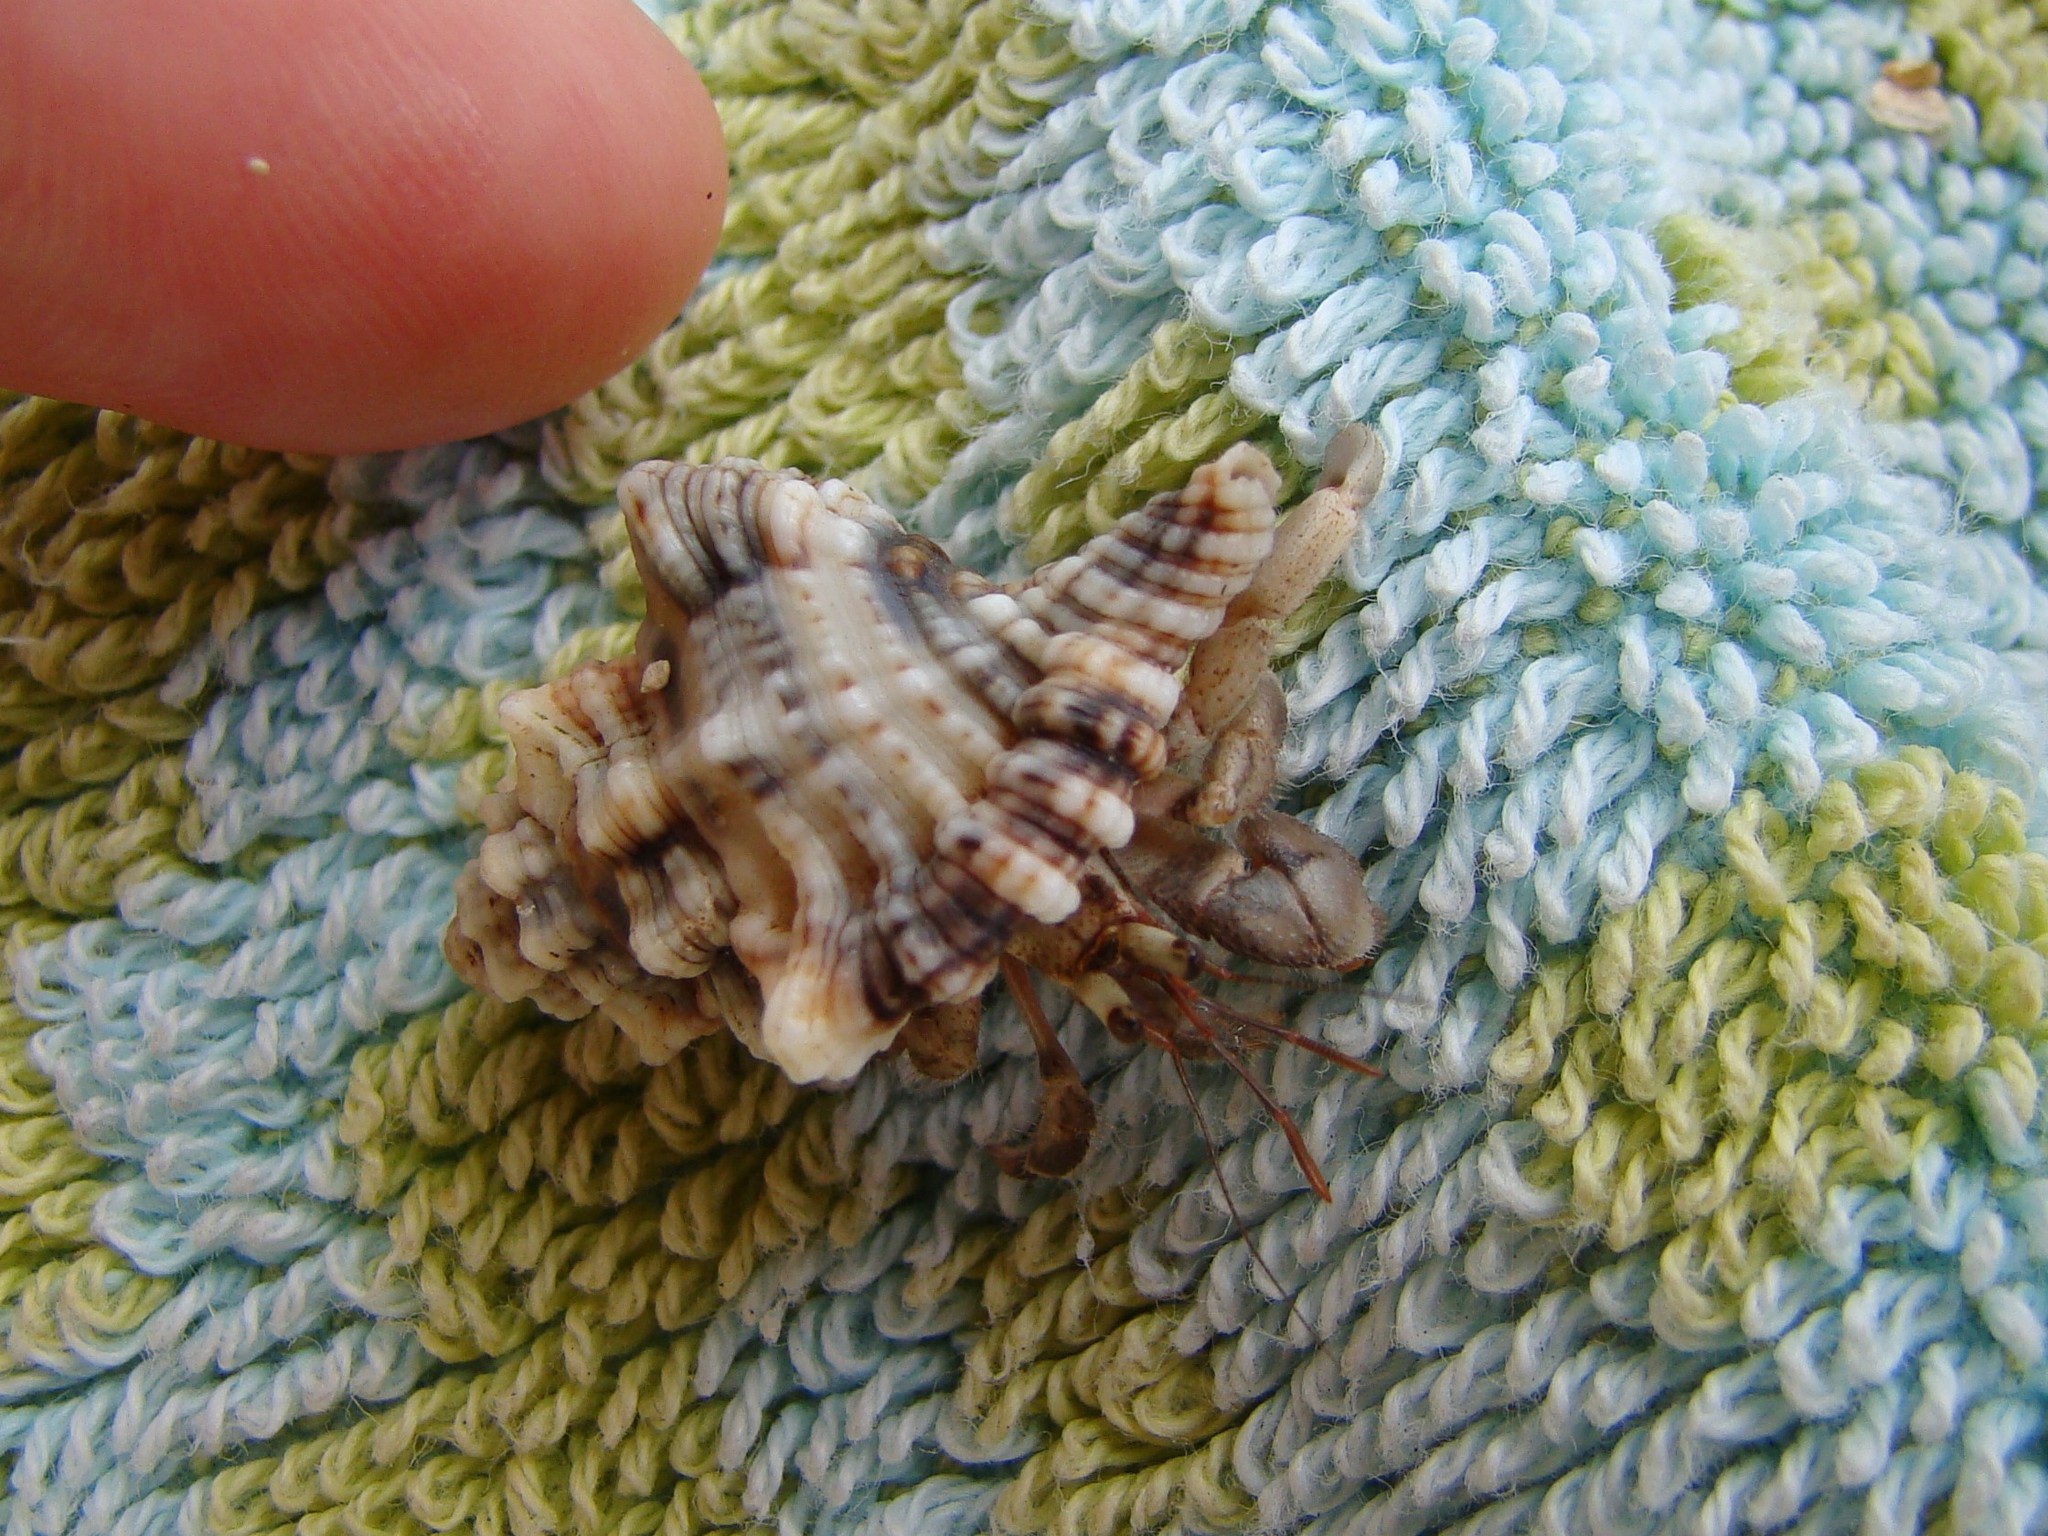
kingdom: Animalia
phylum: Arthropoda
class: Malacostraca
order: Decapoda
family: Coenobitidae
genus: Coenobita
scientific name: Coenobita rugosus
